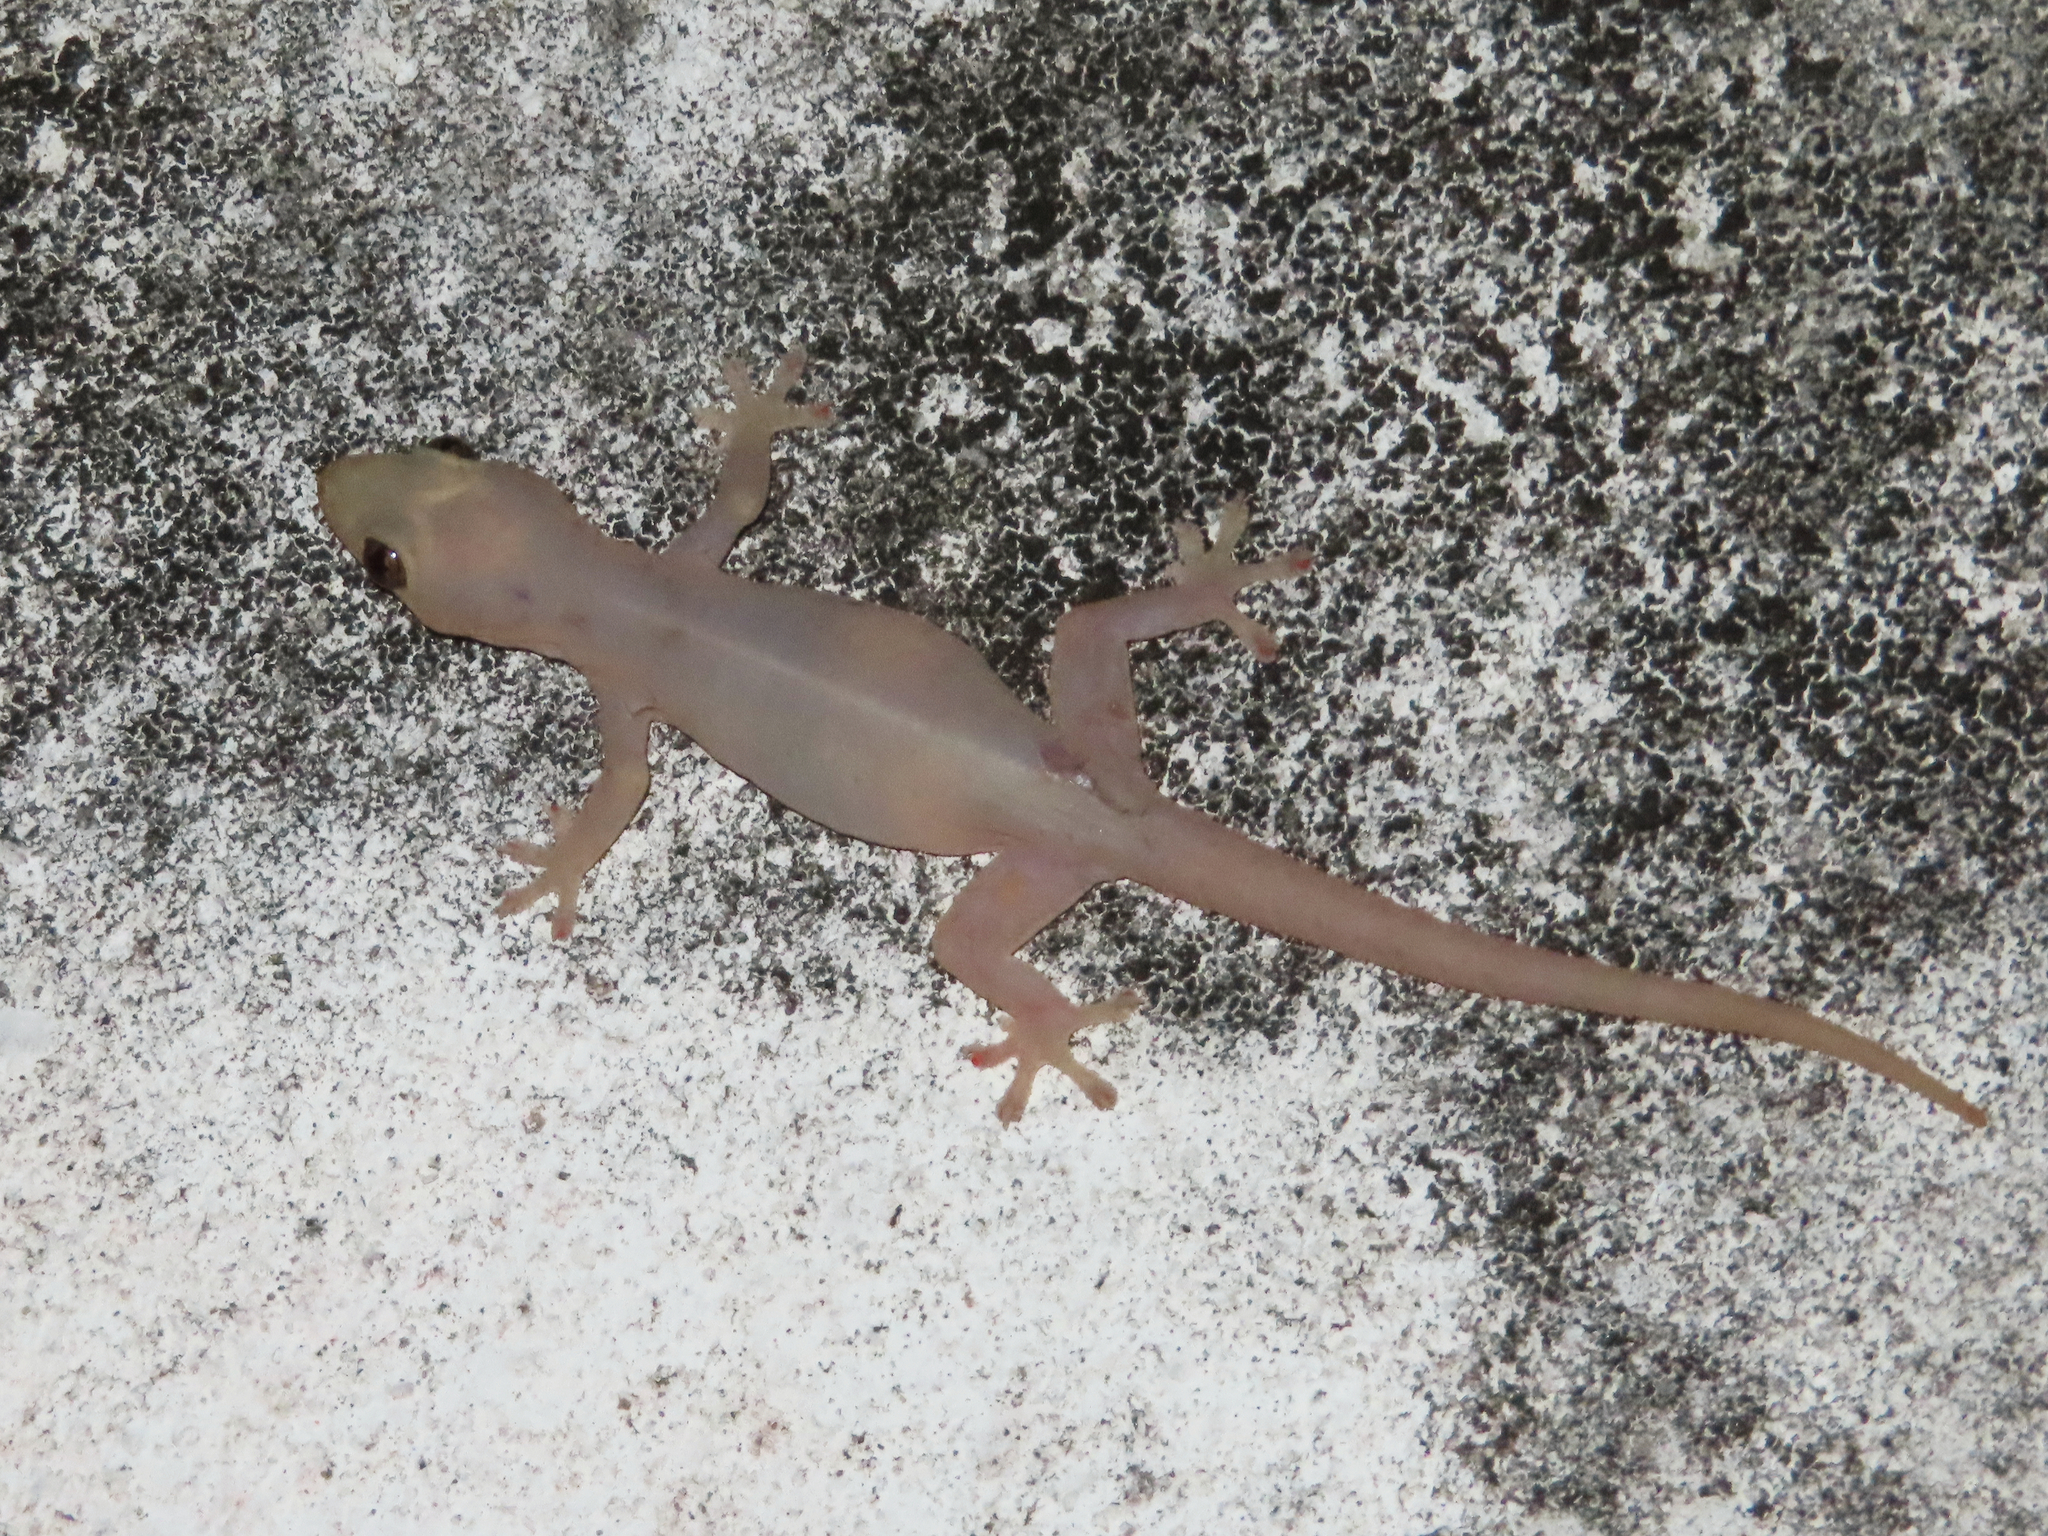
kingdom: Animalia
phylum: Chordata
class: Squamata
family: Gekkonidae
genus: Hemidactylus
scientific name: Hemidactylus frenatus
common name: Common house gecko
